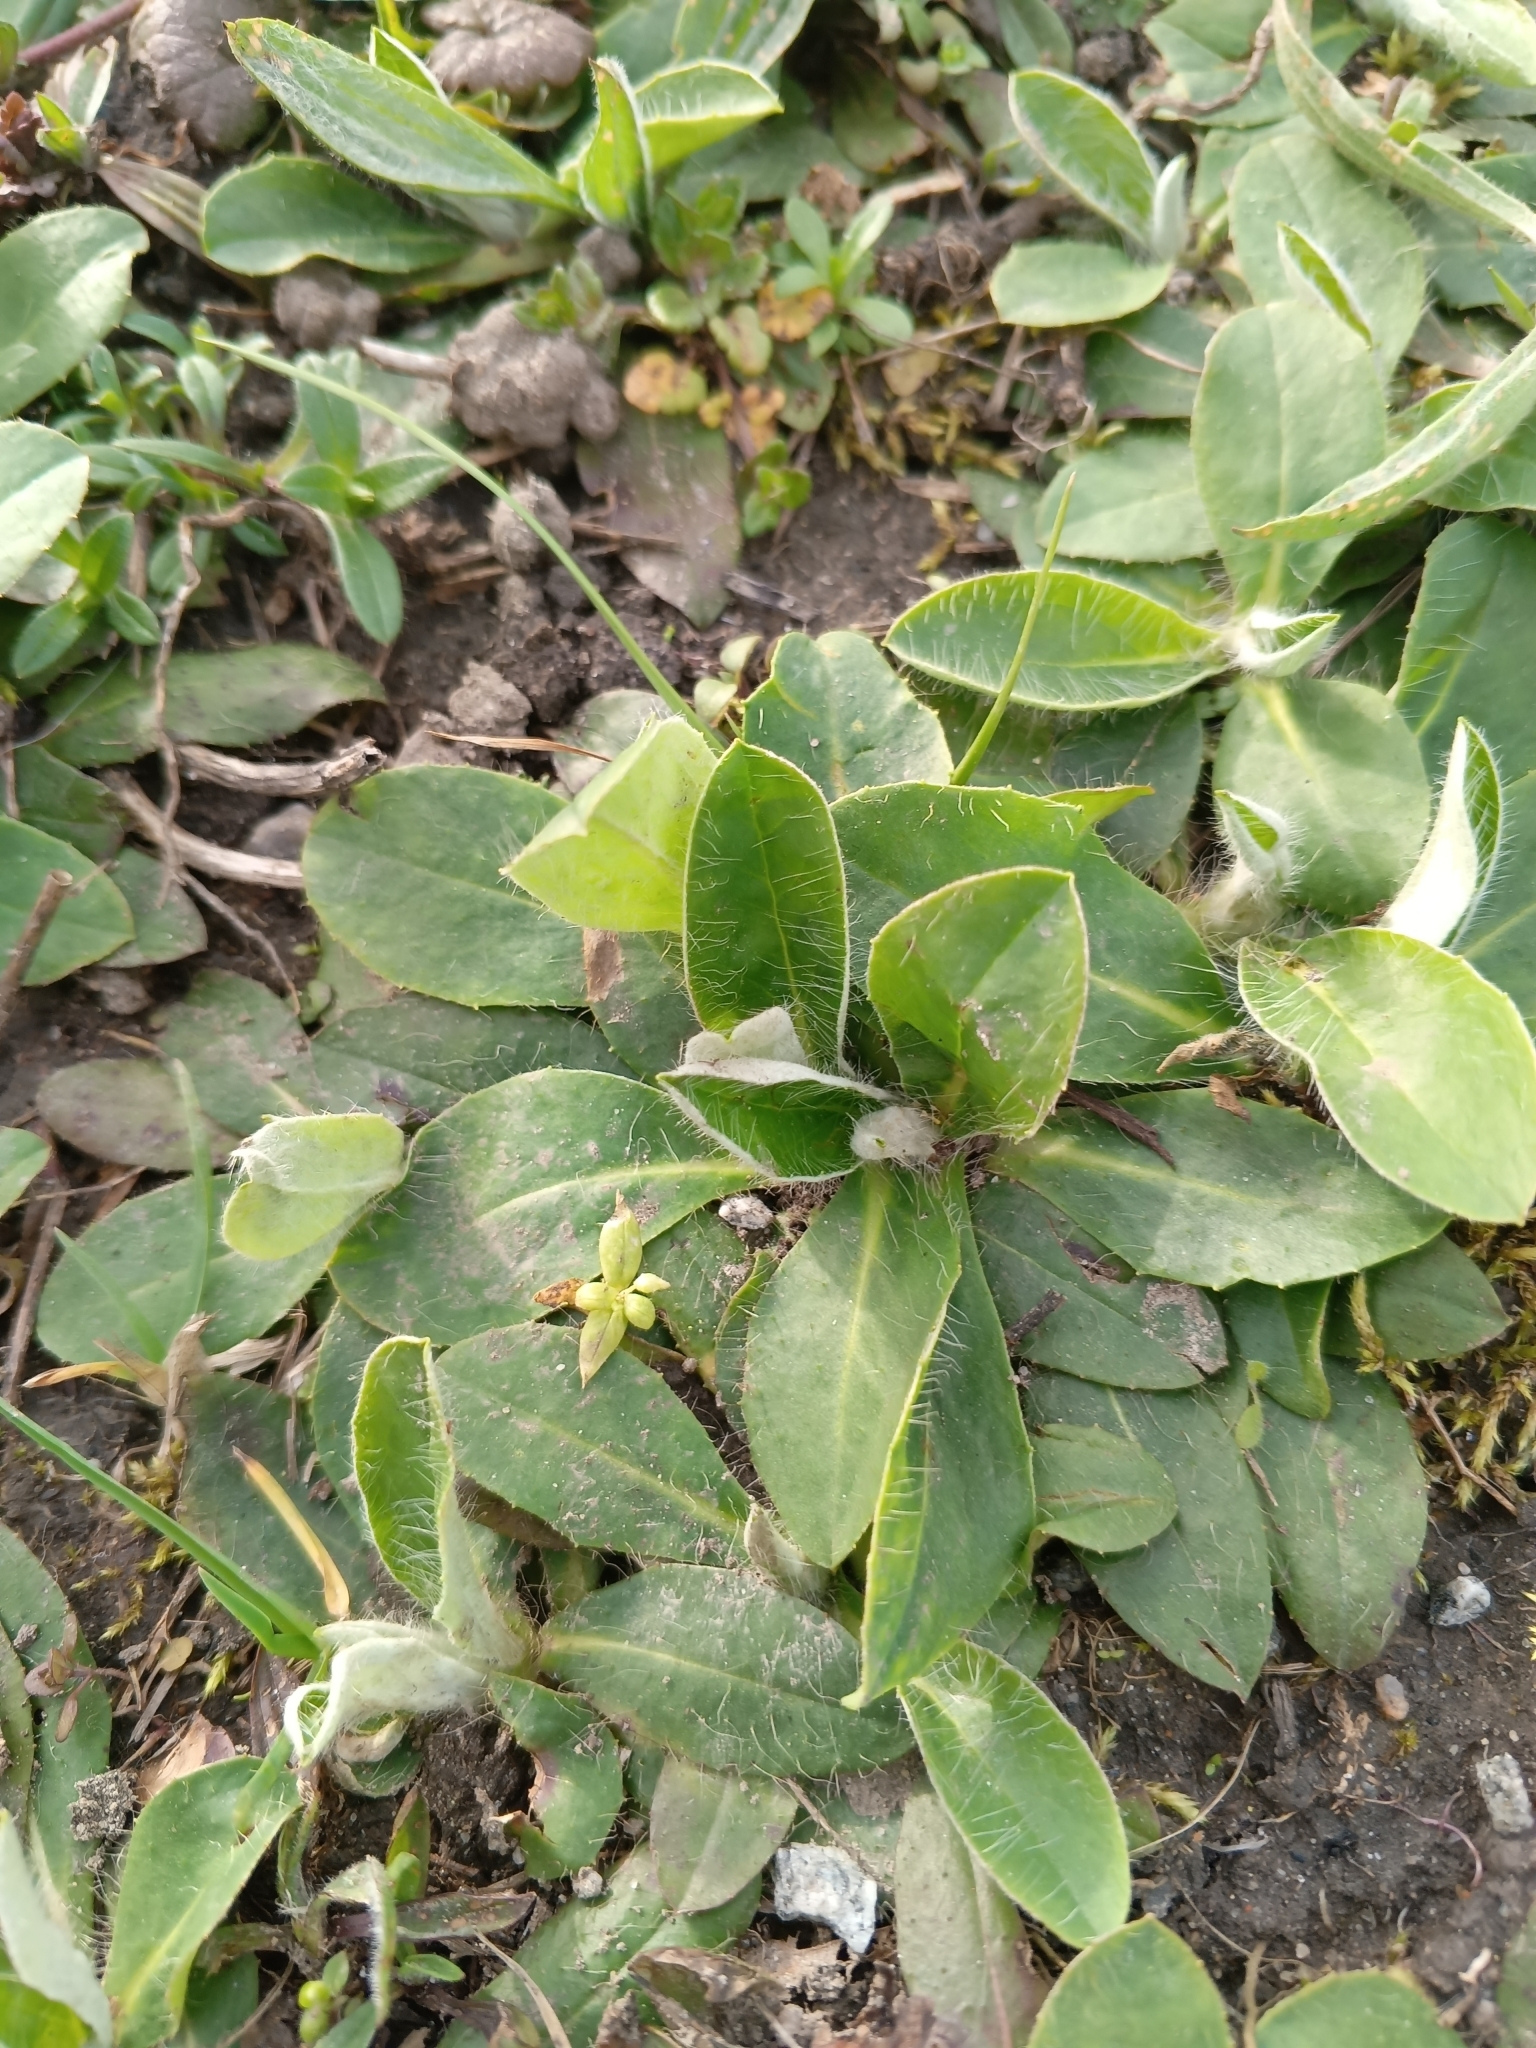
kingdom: Plantae
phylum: Tracheophyta
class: Magnoliopsida
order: Asterales
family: Asteraceae
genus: Pilosella
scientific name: Pilosella officinarum
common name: Mouse-ear hawkweed
